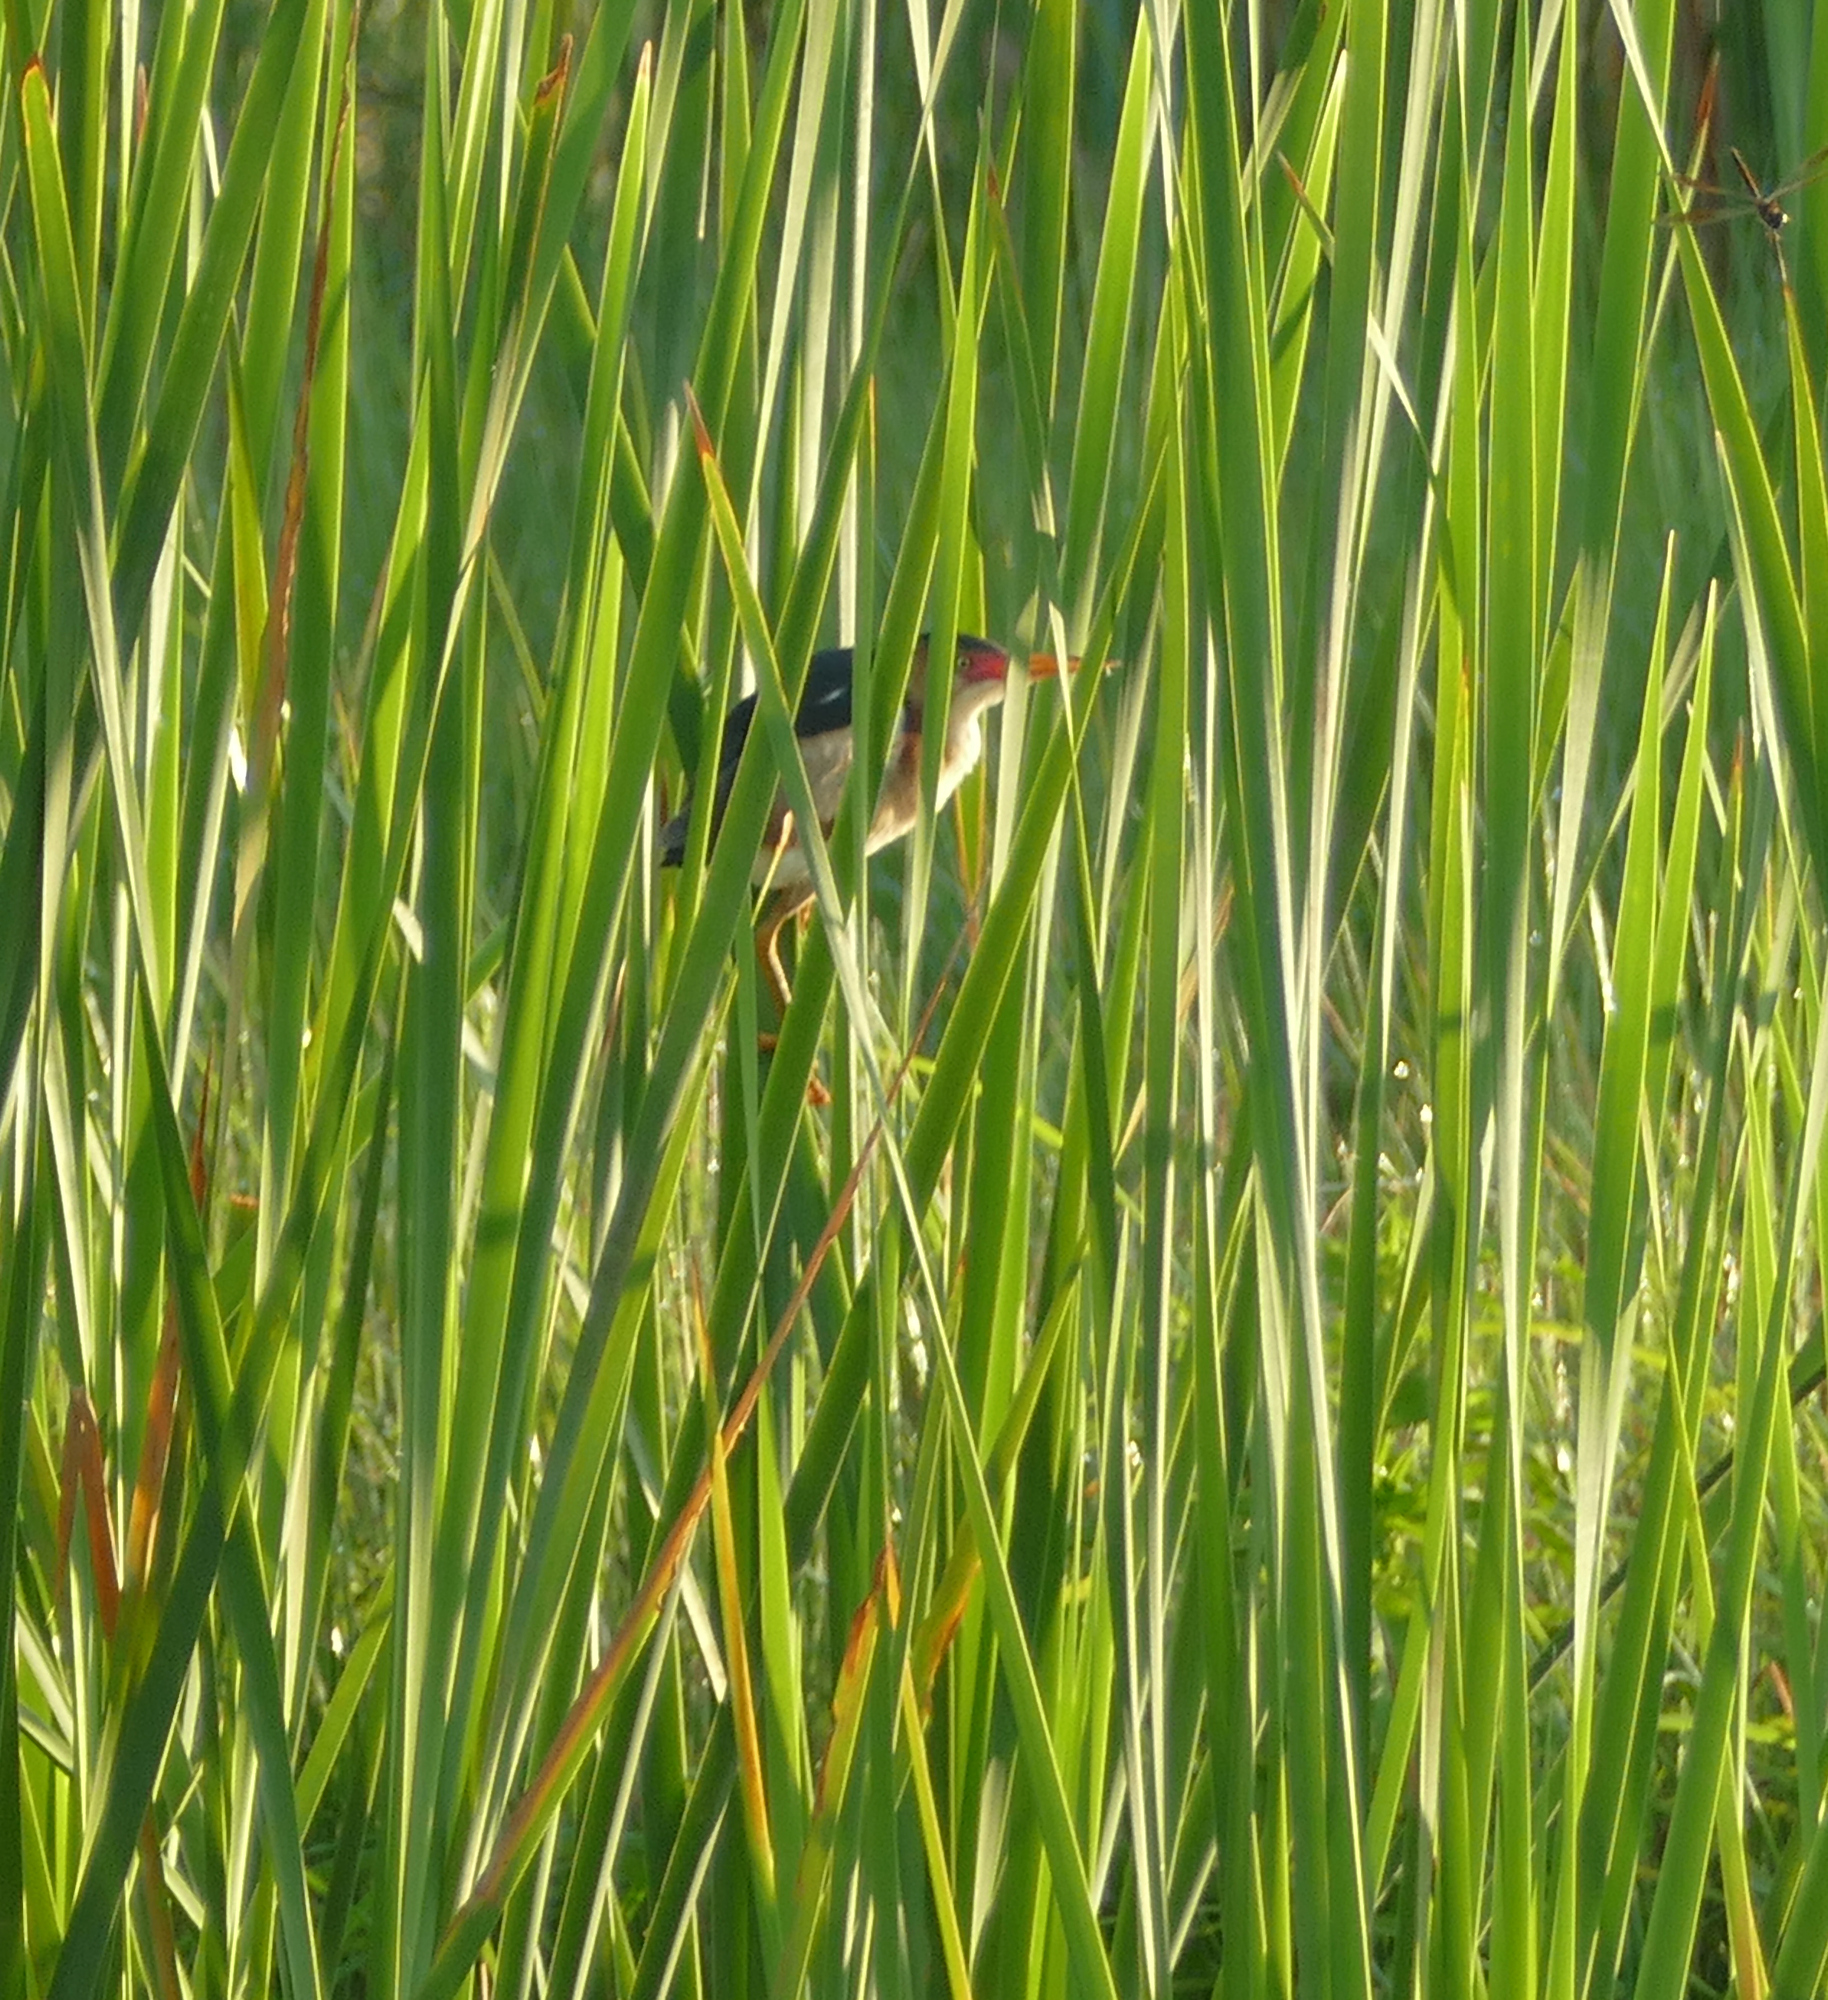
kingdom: Animalia
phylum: Chordata
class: Aves
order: Pelecaniformes
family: Ardeidae
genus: Ixobrychus
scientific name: Ixobrychus exilis
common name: Least bittern
